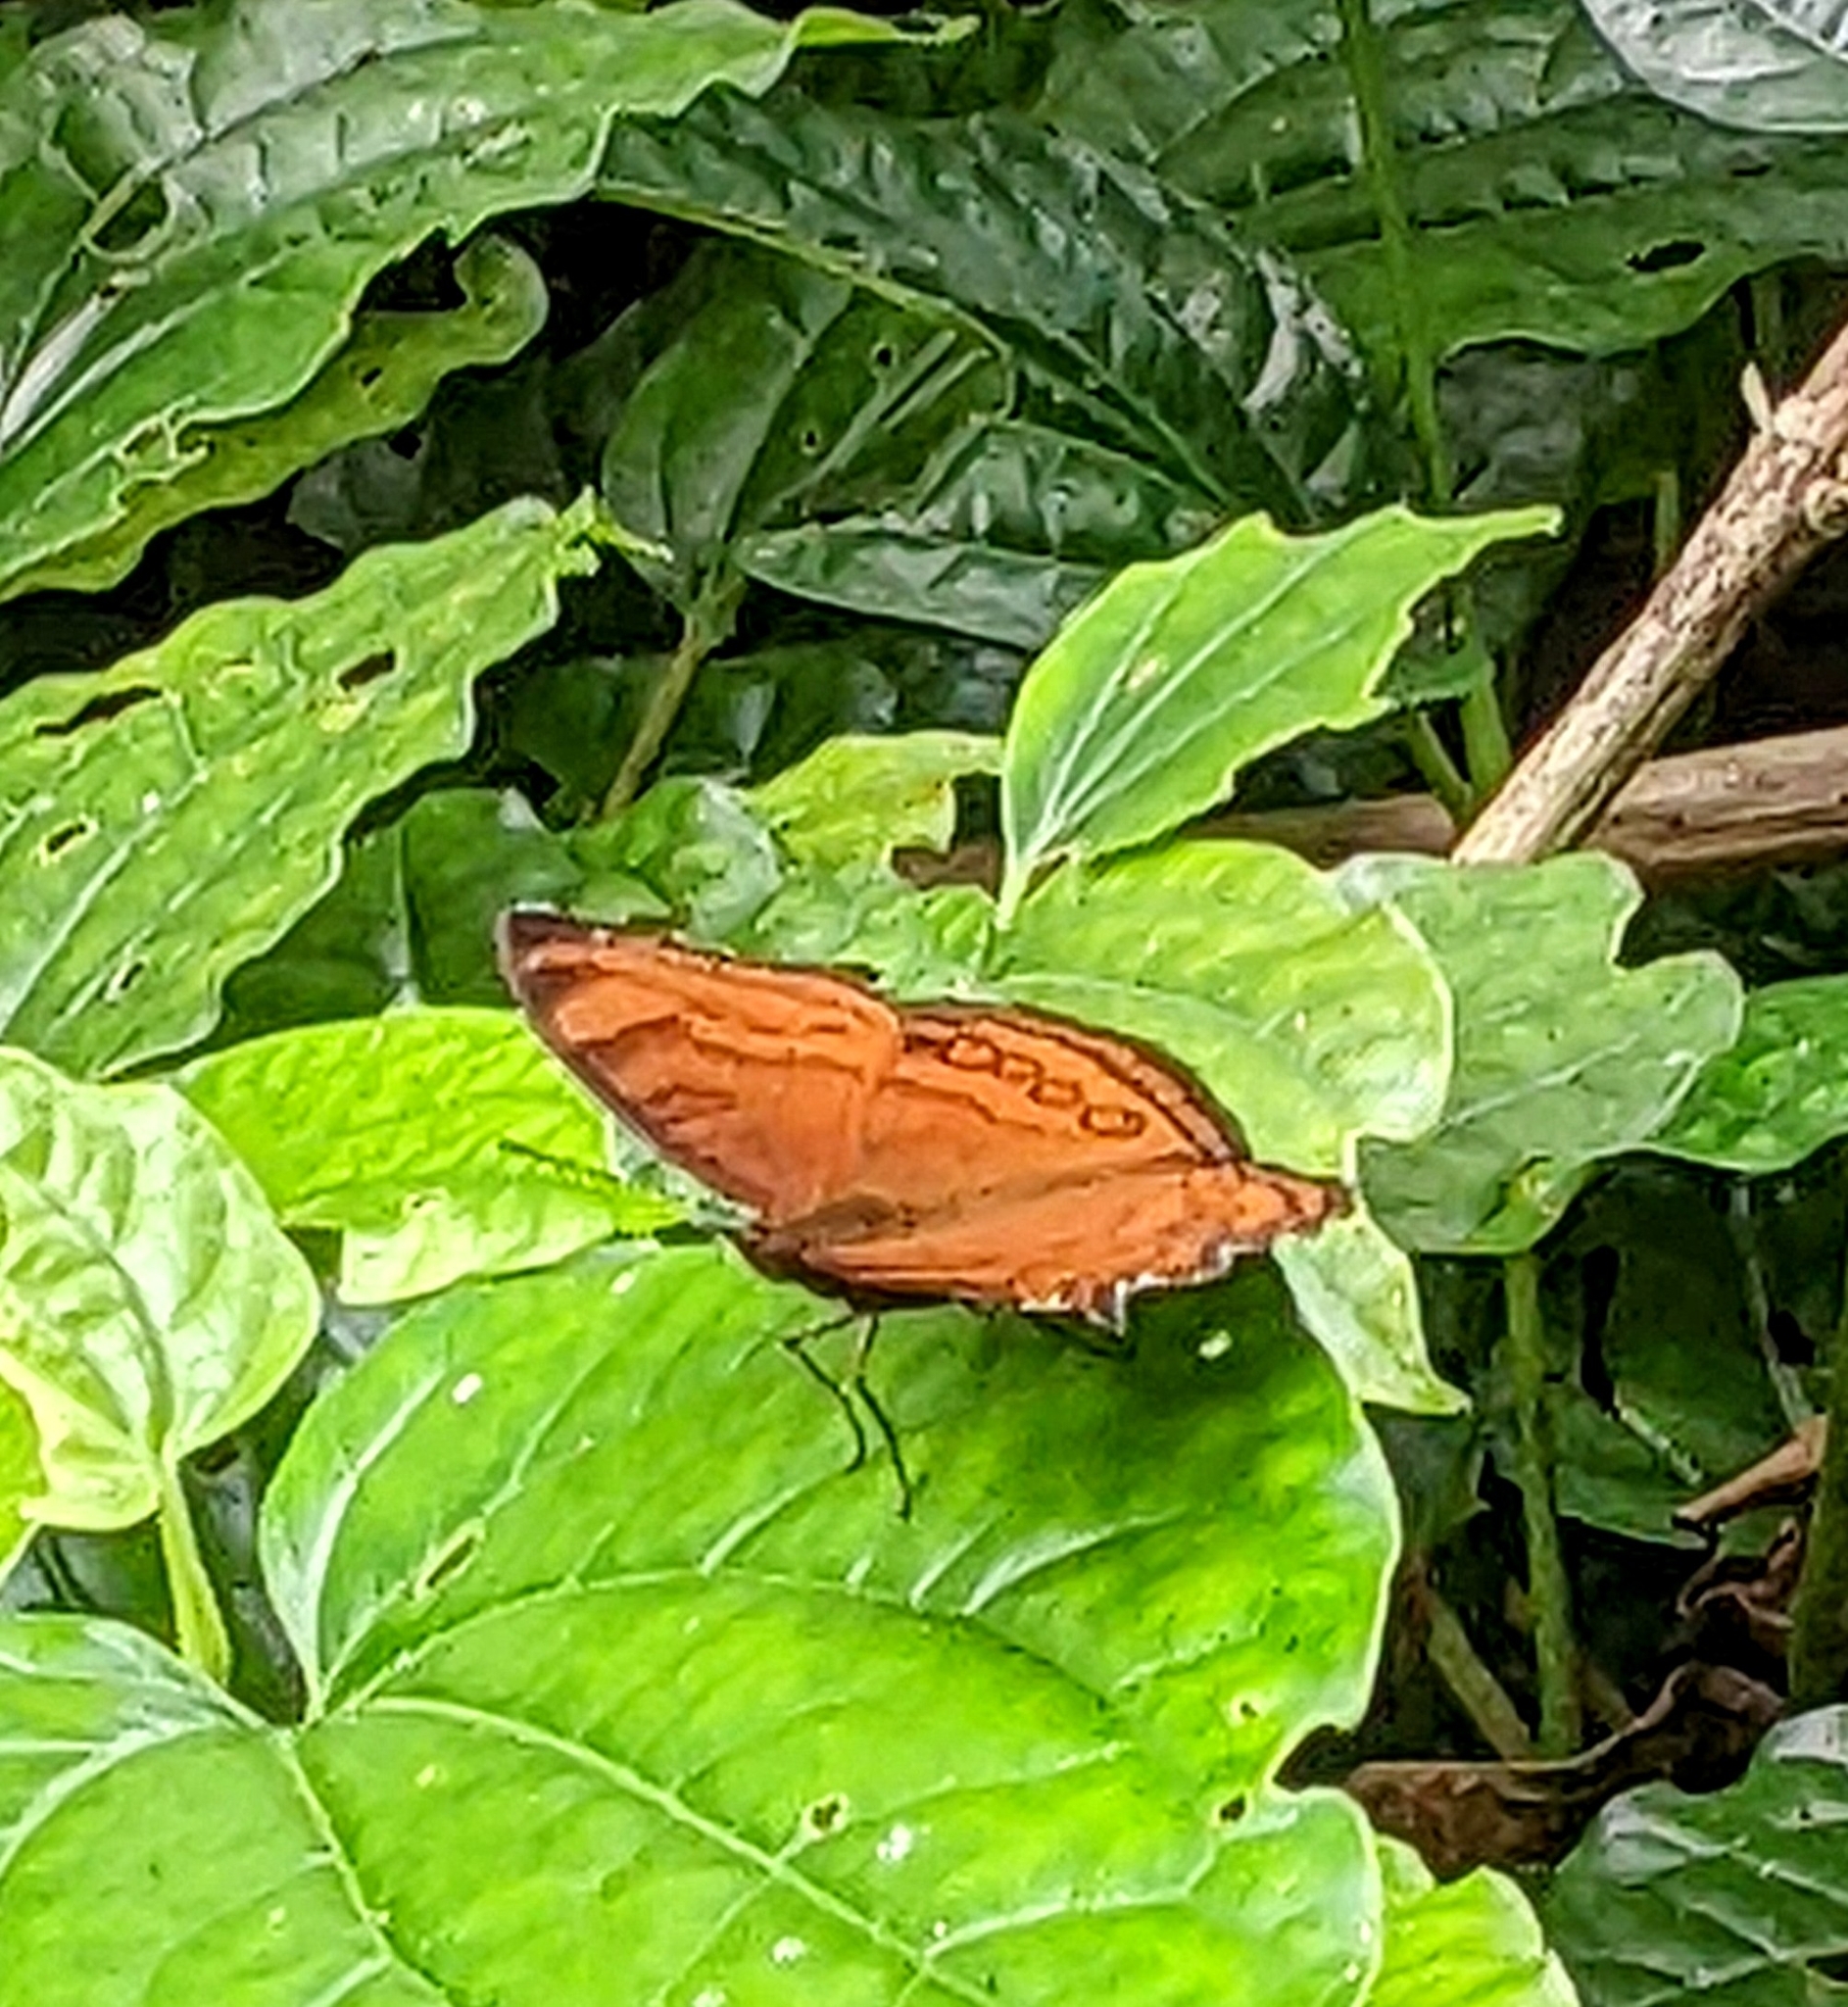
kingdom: Animalia
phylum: Arthropoda
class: Insecta
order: Lepidoptera
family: Nymphalidae
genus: Junonia
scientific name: Junonia hedonia
